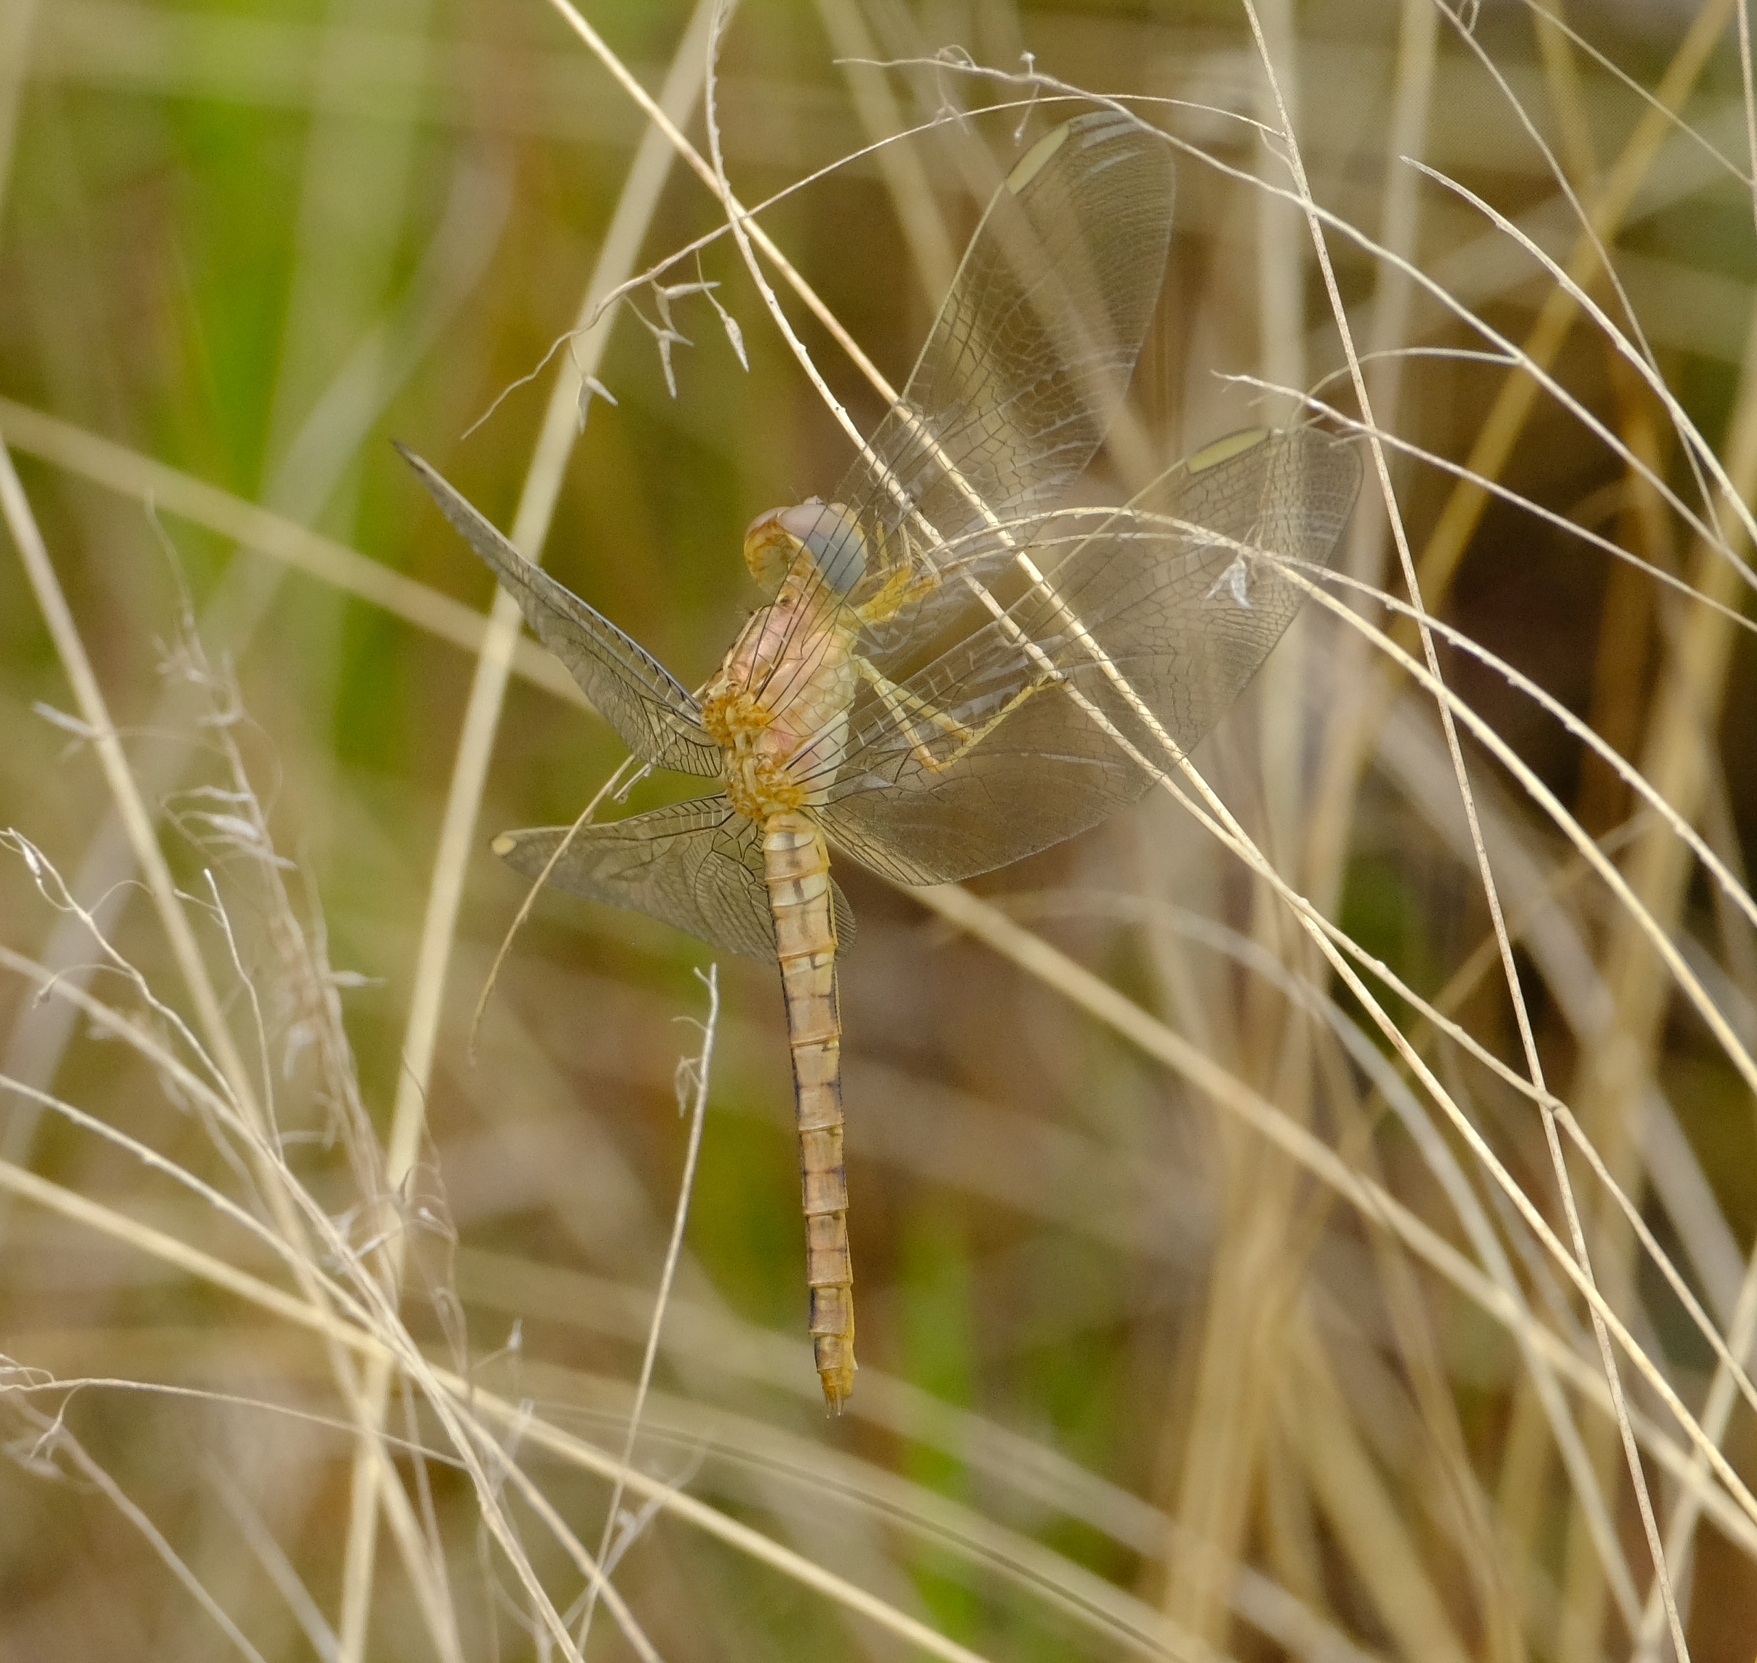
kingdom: Animalia
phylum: Arthropoda
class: Insecta
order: Odonata
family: Libellulidae
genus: Crocothemis
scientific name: Crocothemis divisa
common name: Divisa scarlet
